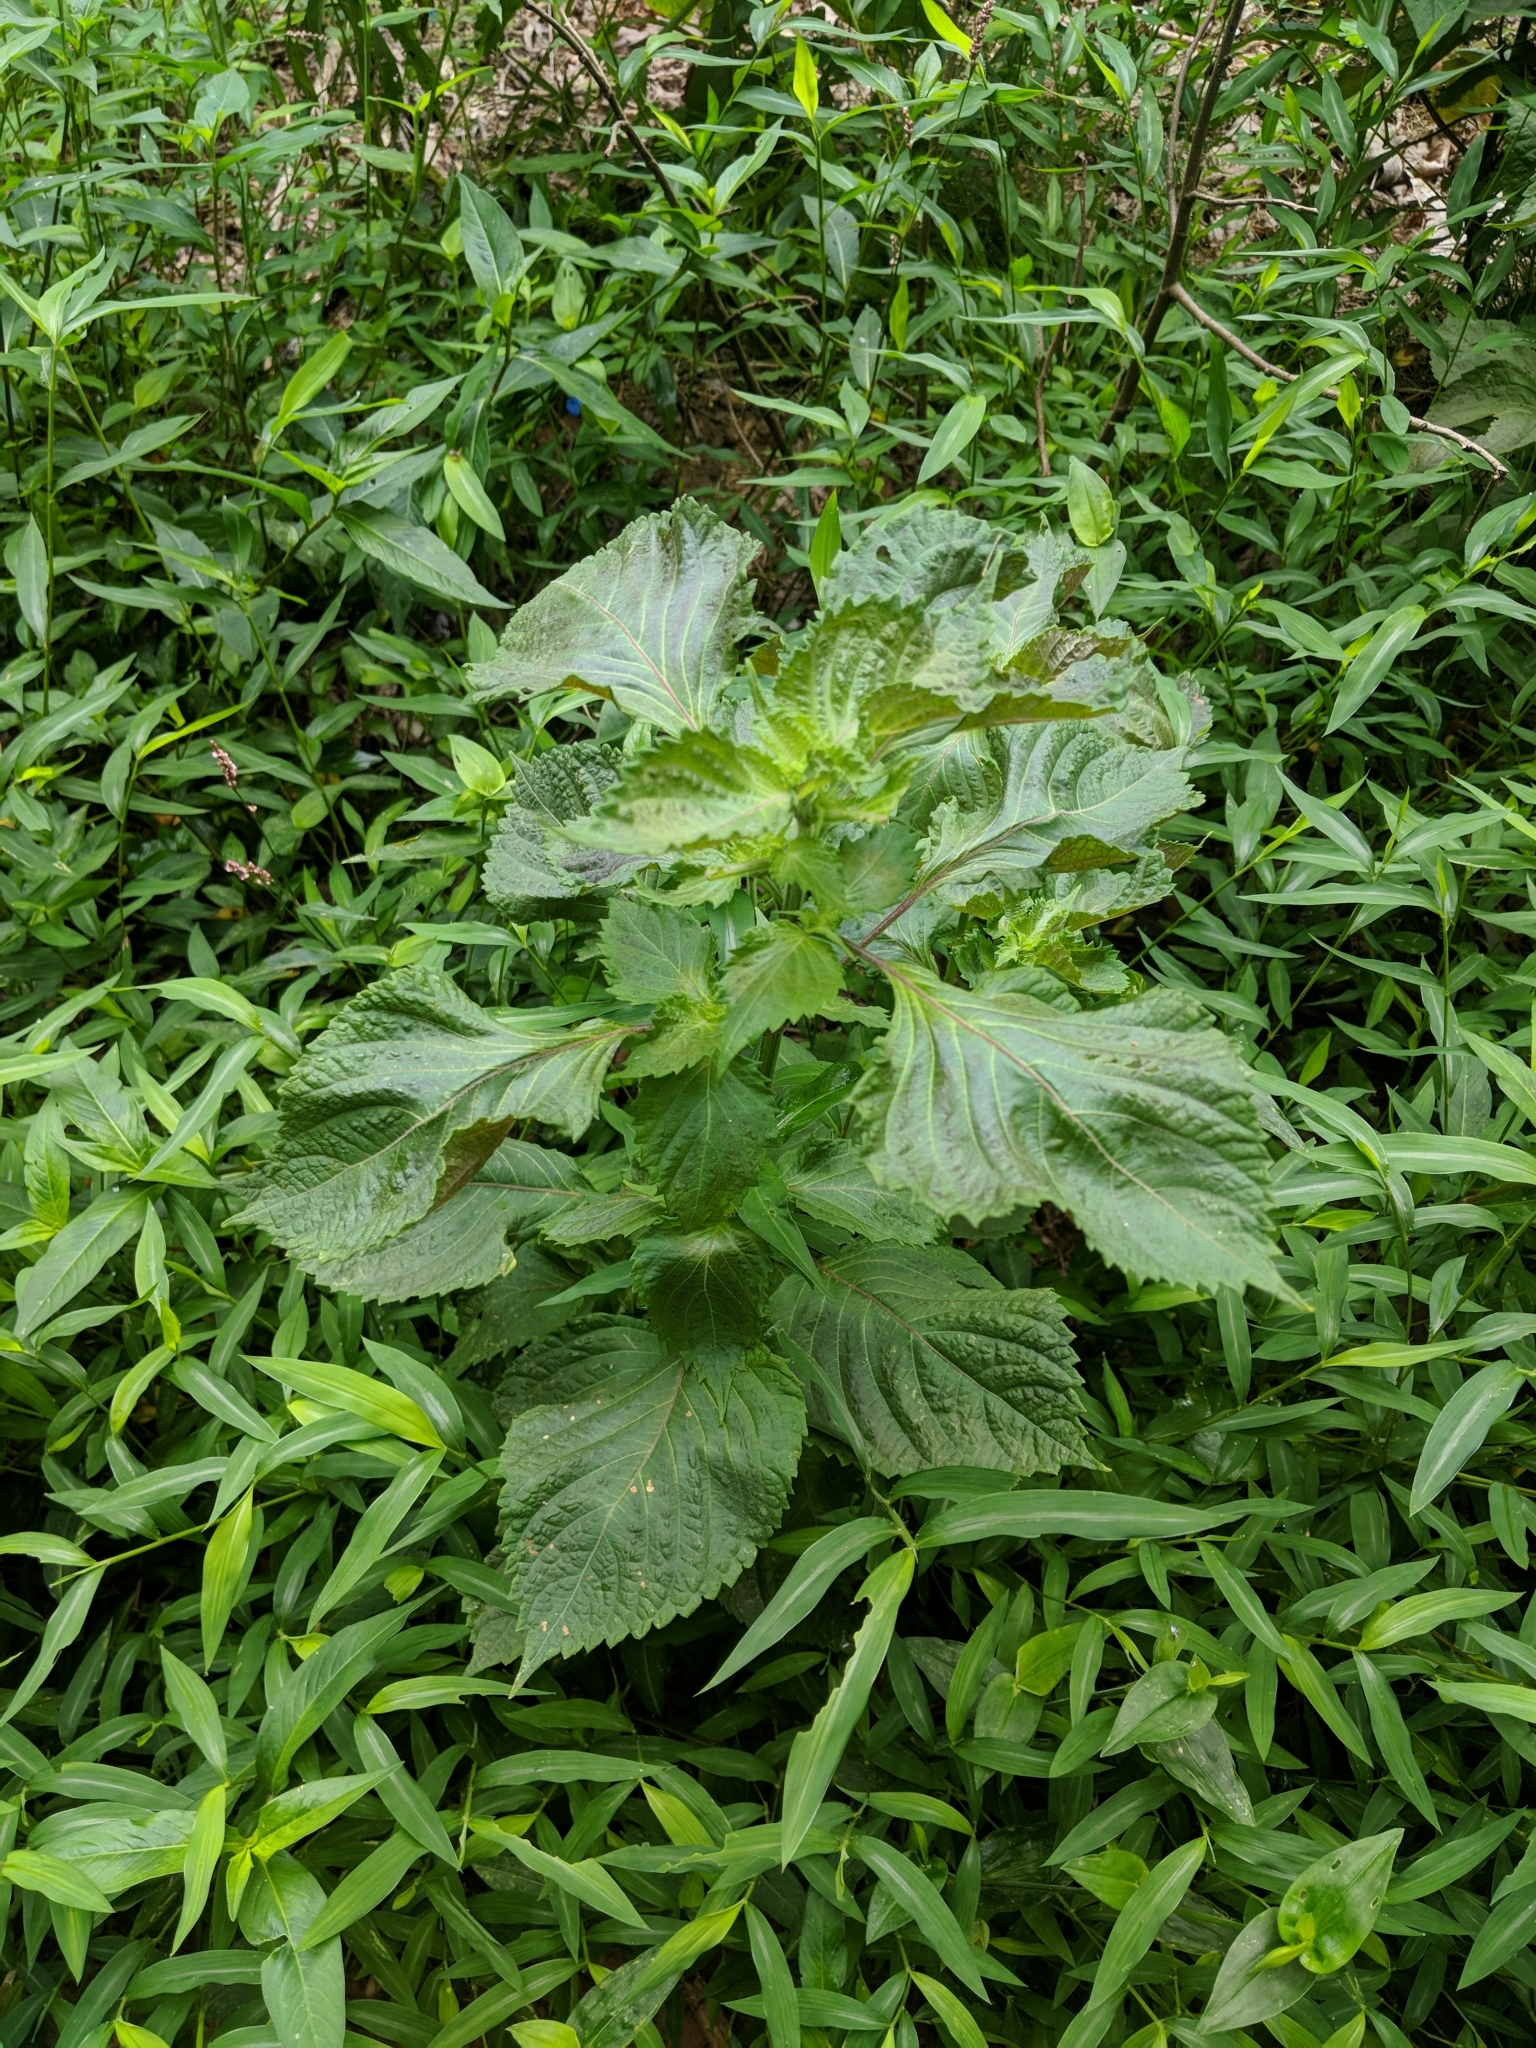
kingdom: Plantae
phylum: Tracheophyta
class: Magnoliopsida
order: Lamiales
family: Lamiaceae
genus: Perilla
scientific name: Perilla frutescens
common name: Perilla
